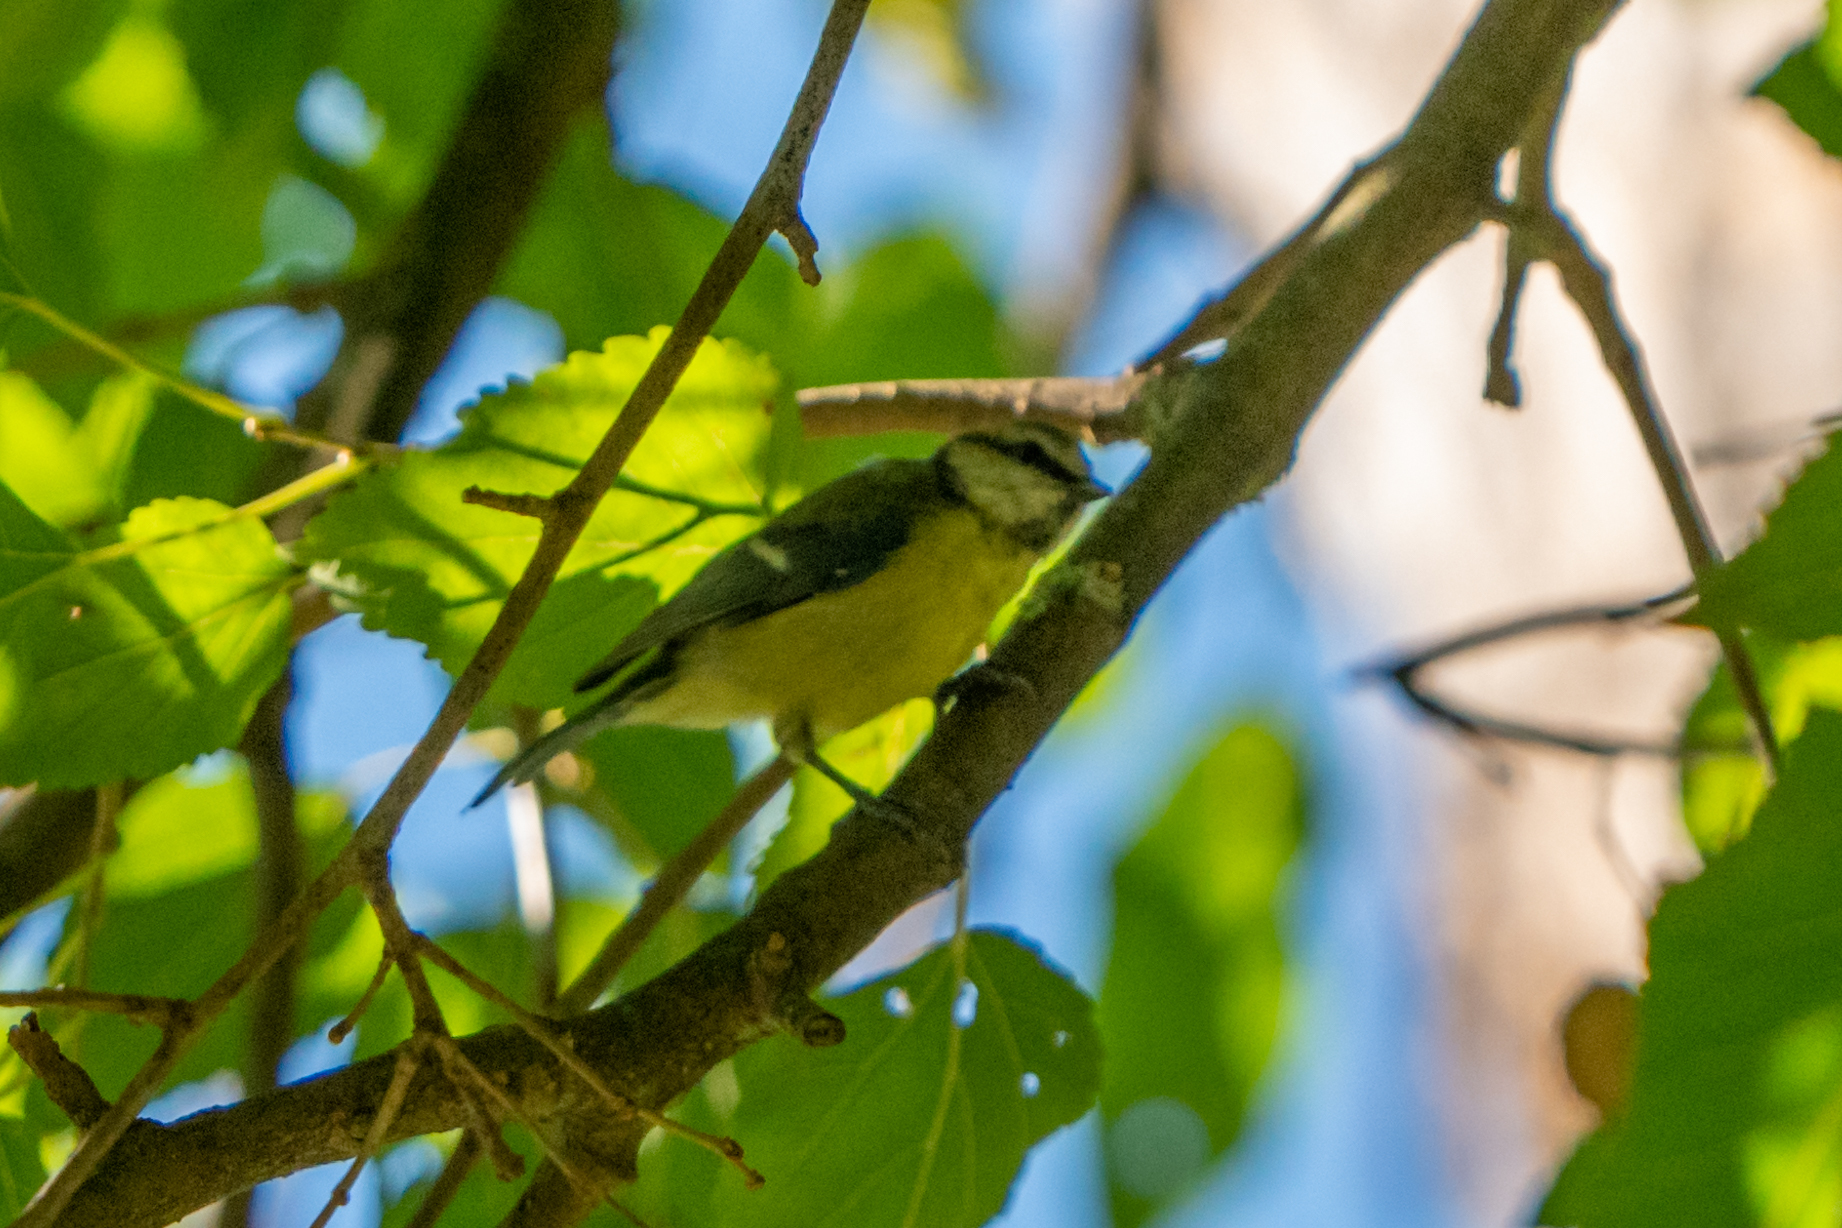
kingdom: Animalia
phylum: Chordata
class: Aves
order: Passeriformes
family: Paridae
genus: Cyanistes
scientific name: Cyanistes caeruleus
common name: Eurasian blue tit
